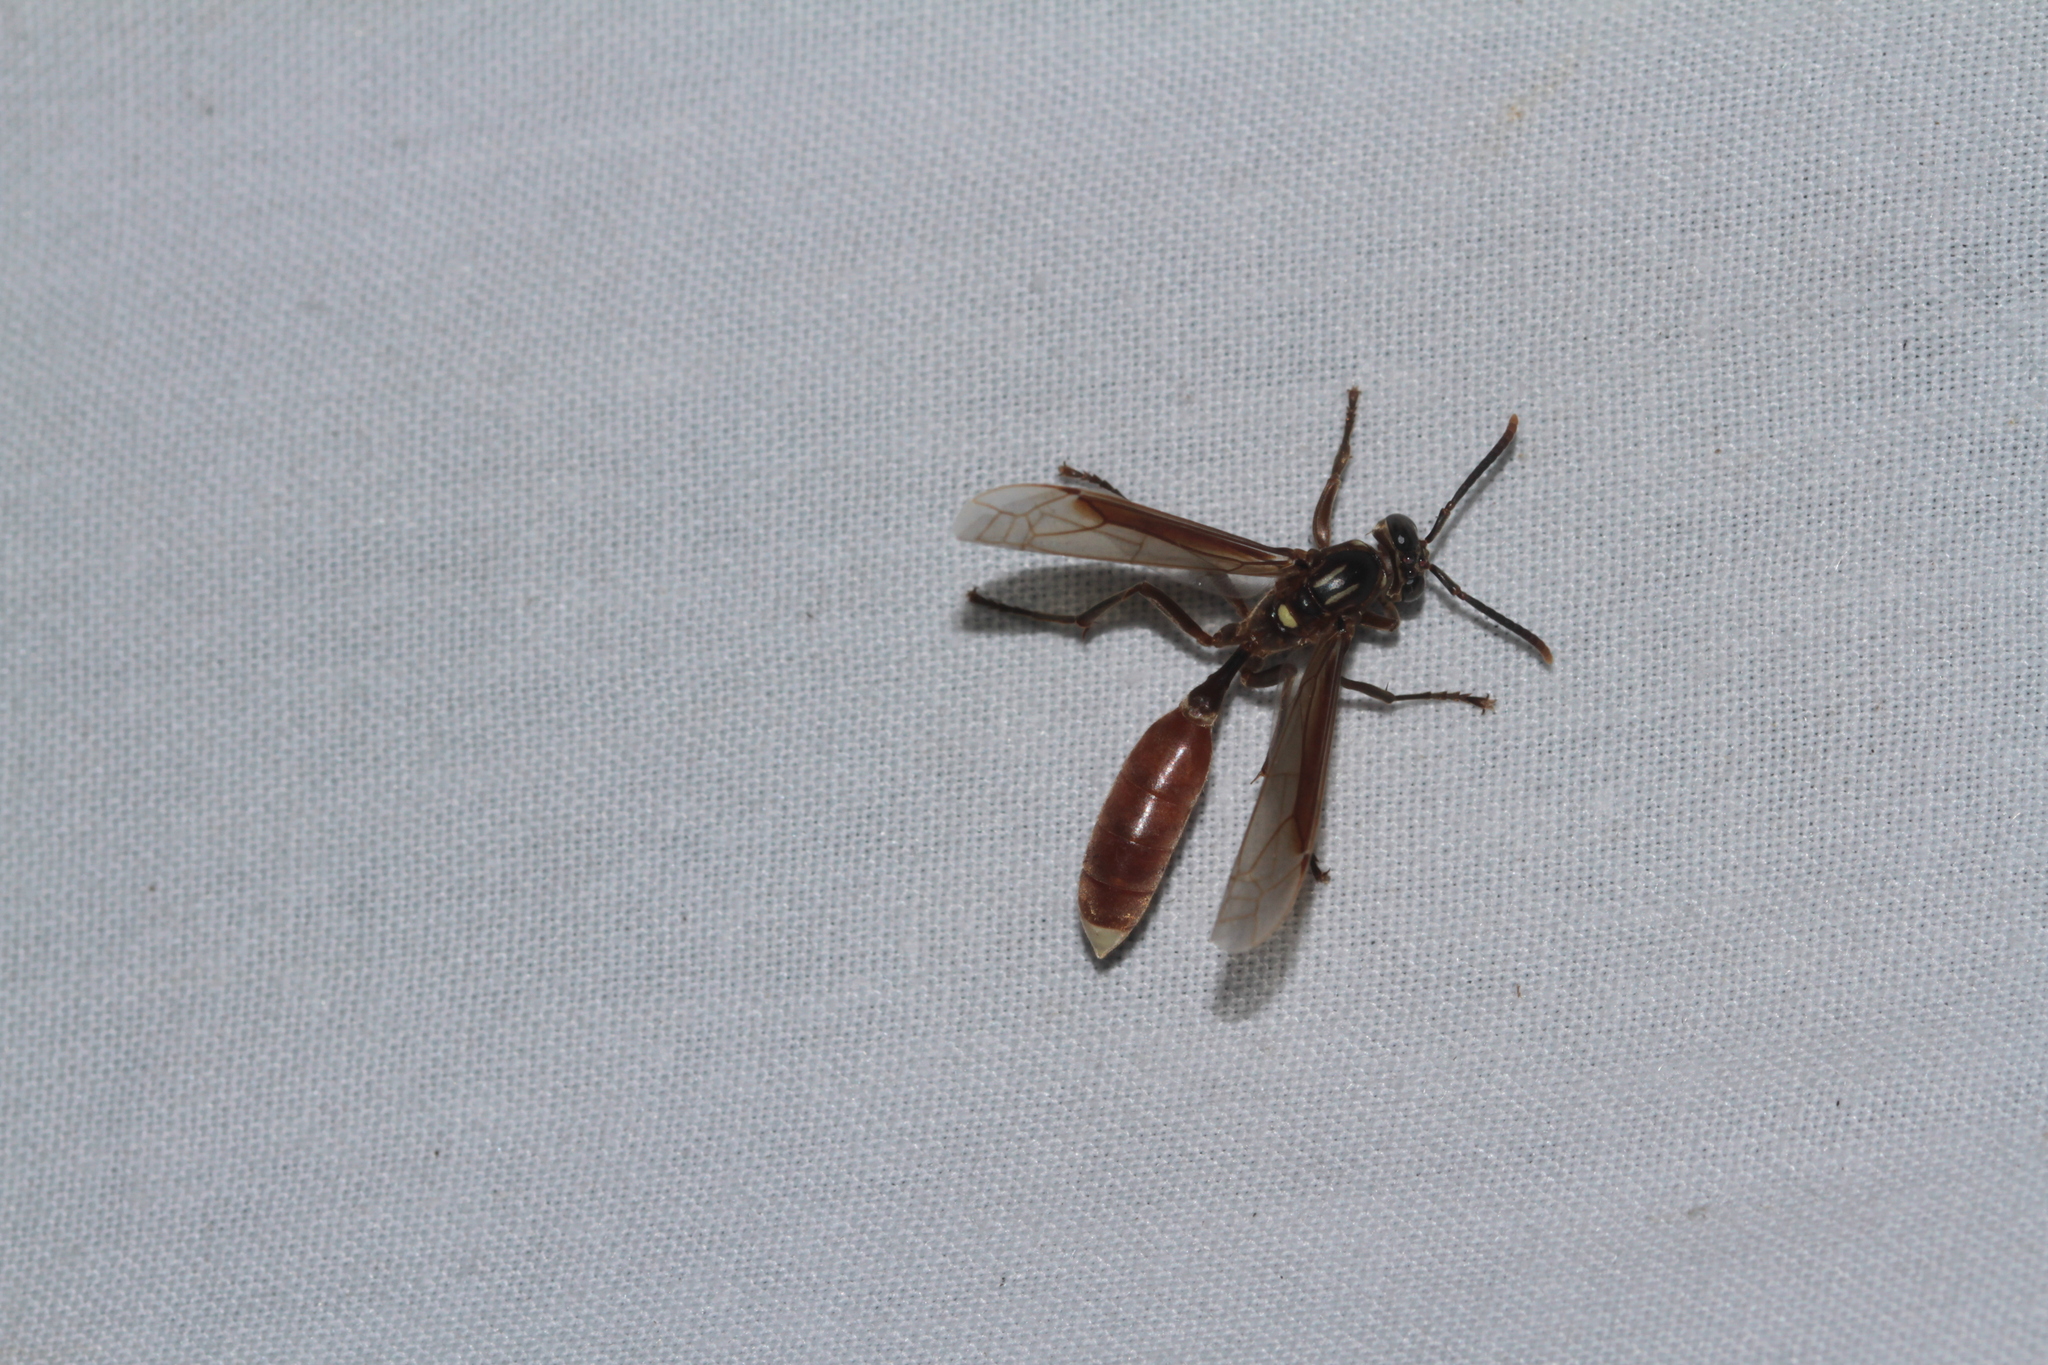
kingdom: Animalia
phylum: Arthropoda
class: Insecta
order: Hymenoptera
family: Vespidae
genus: Apoica
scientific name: Apoica pallida
